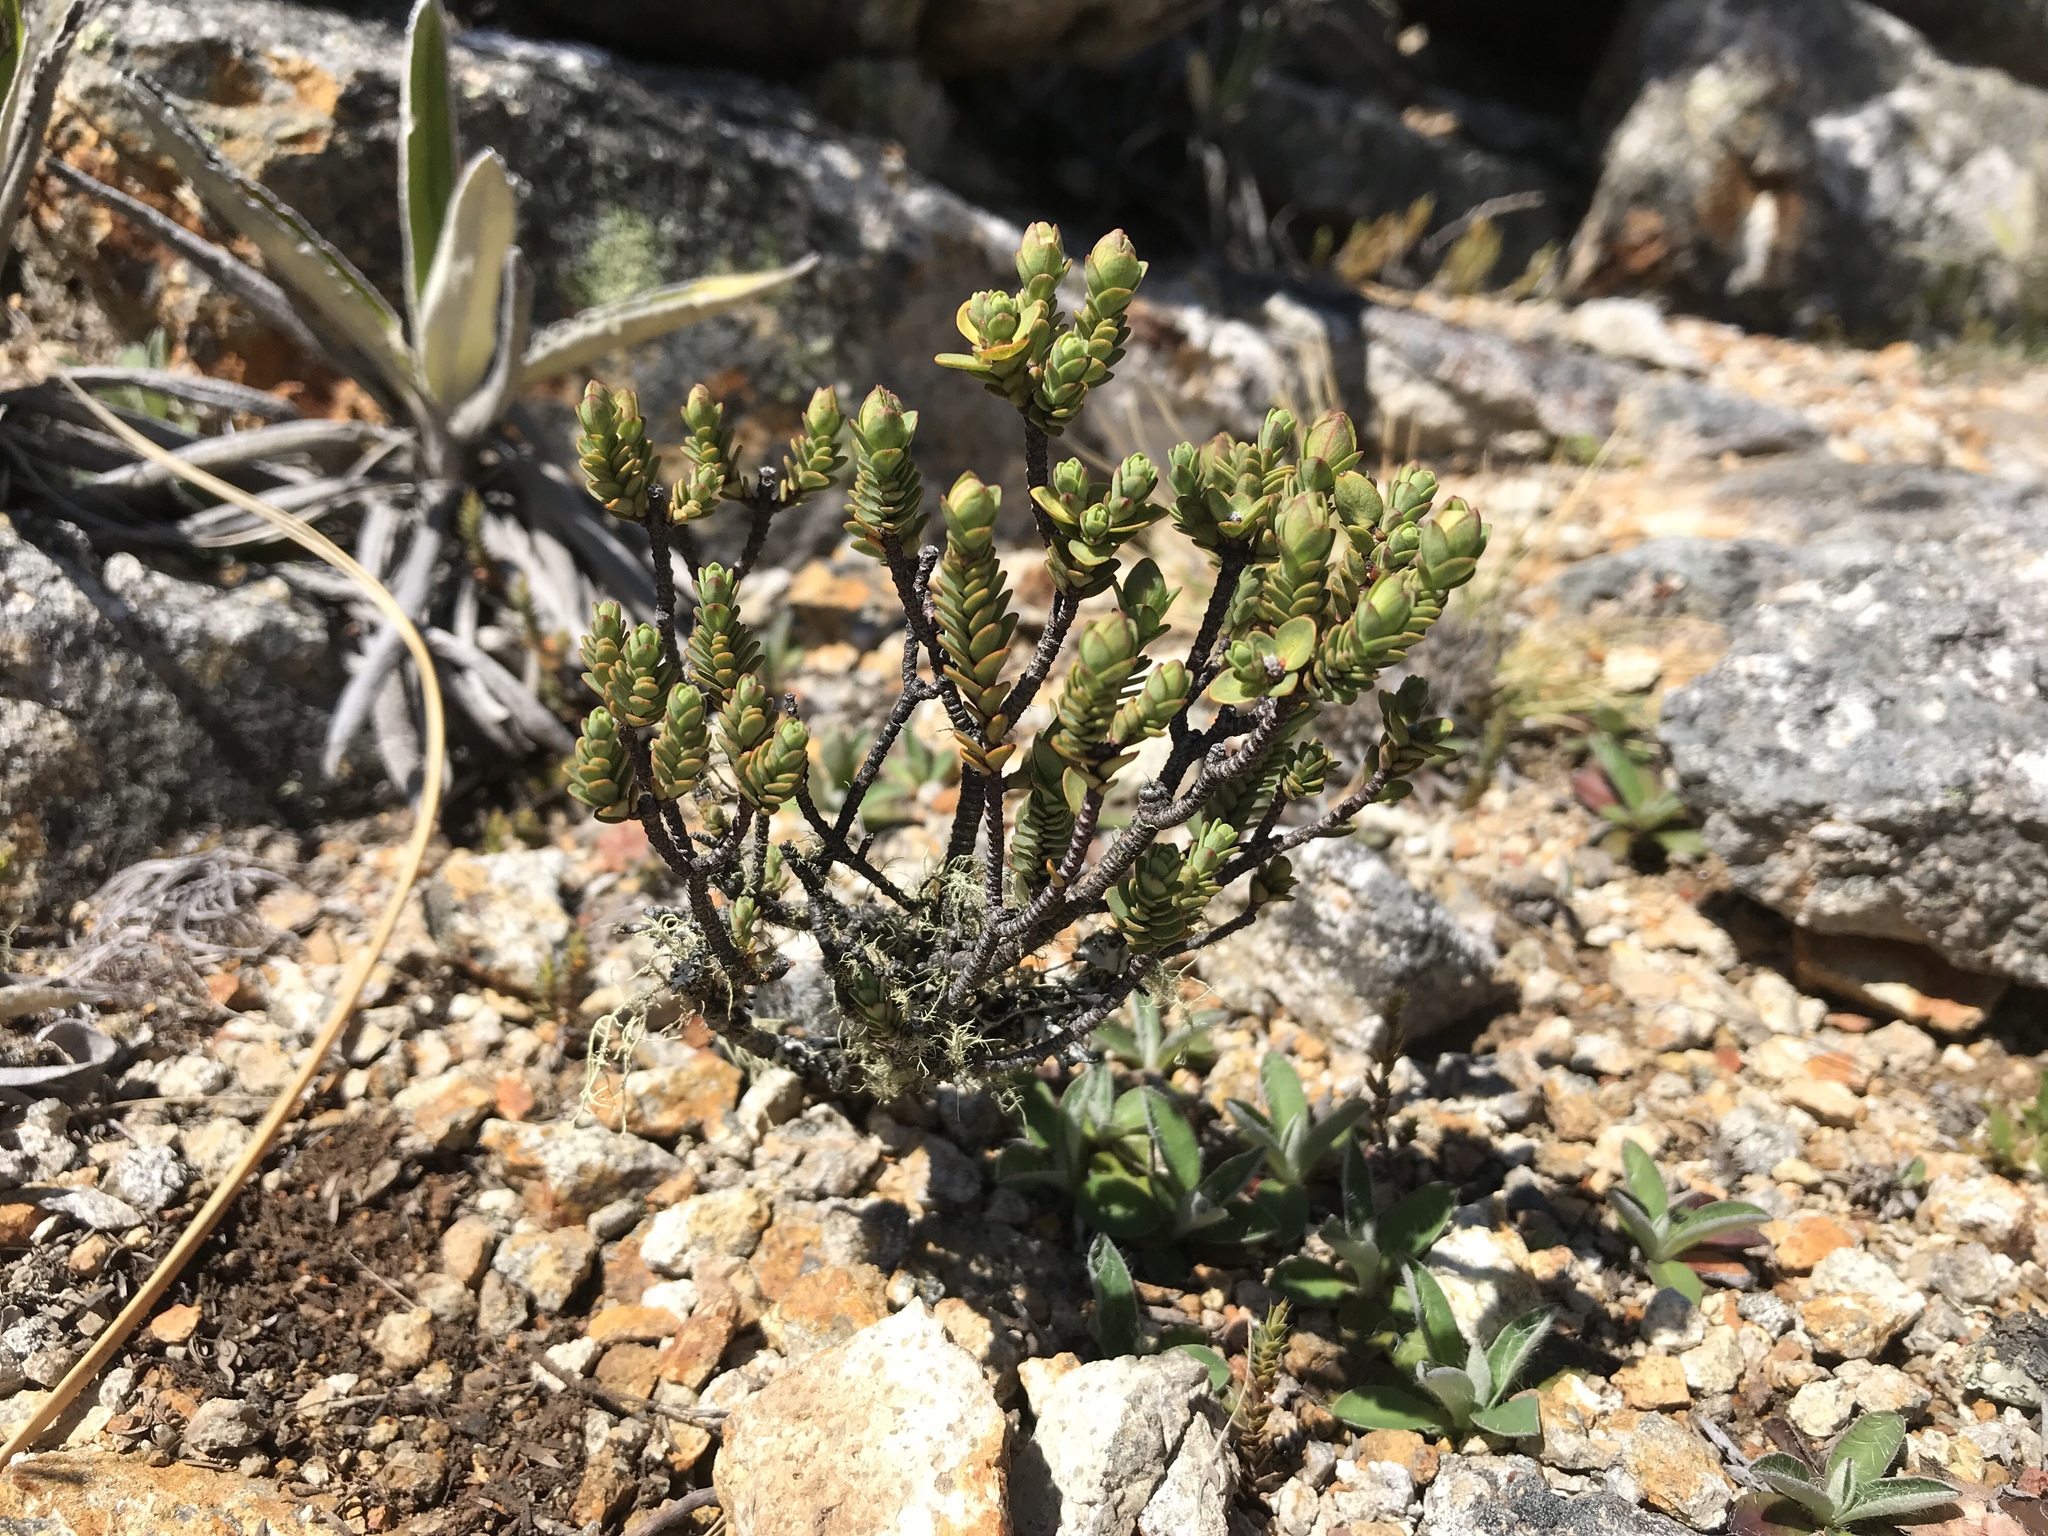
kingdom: Plantae
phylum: Tracheophyta
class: Magnoliopsida
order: Malvales
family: Thymelaeaceae
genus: Pimelea
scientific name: Pimelea traversii
